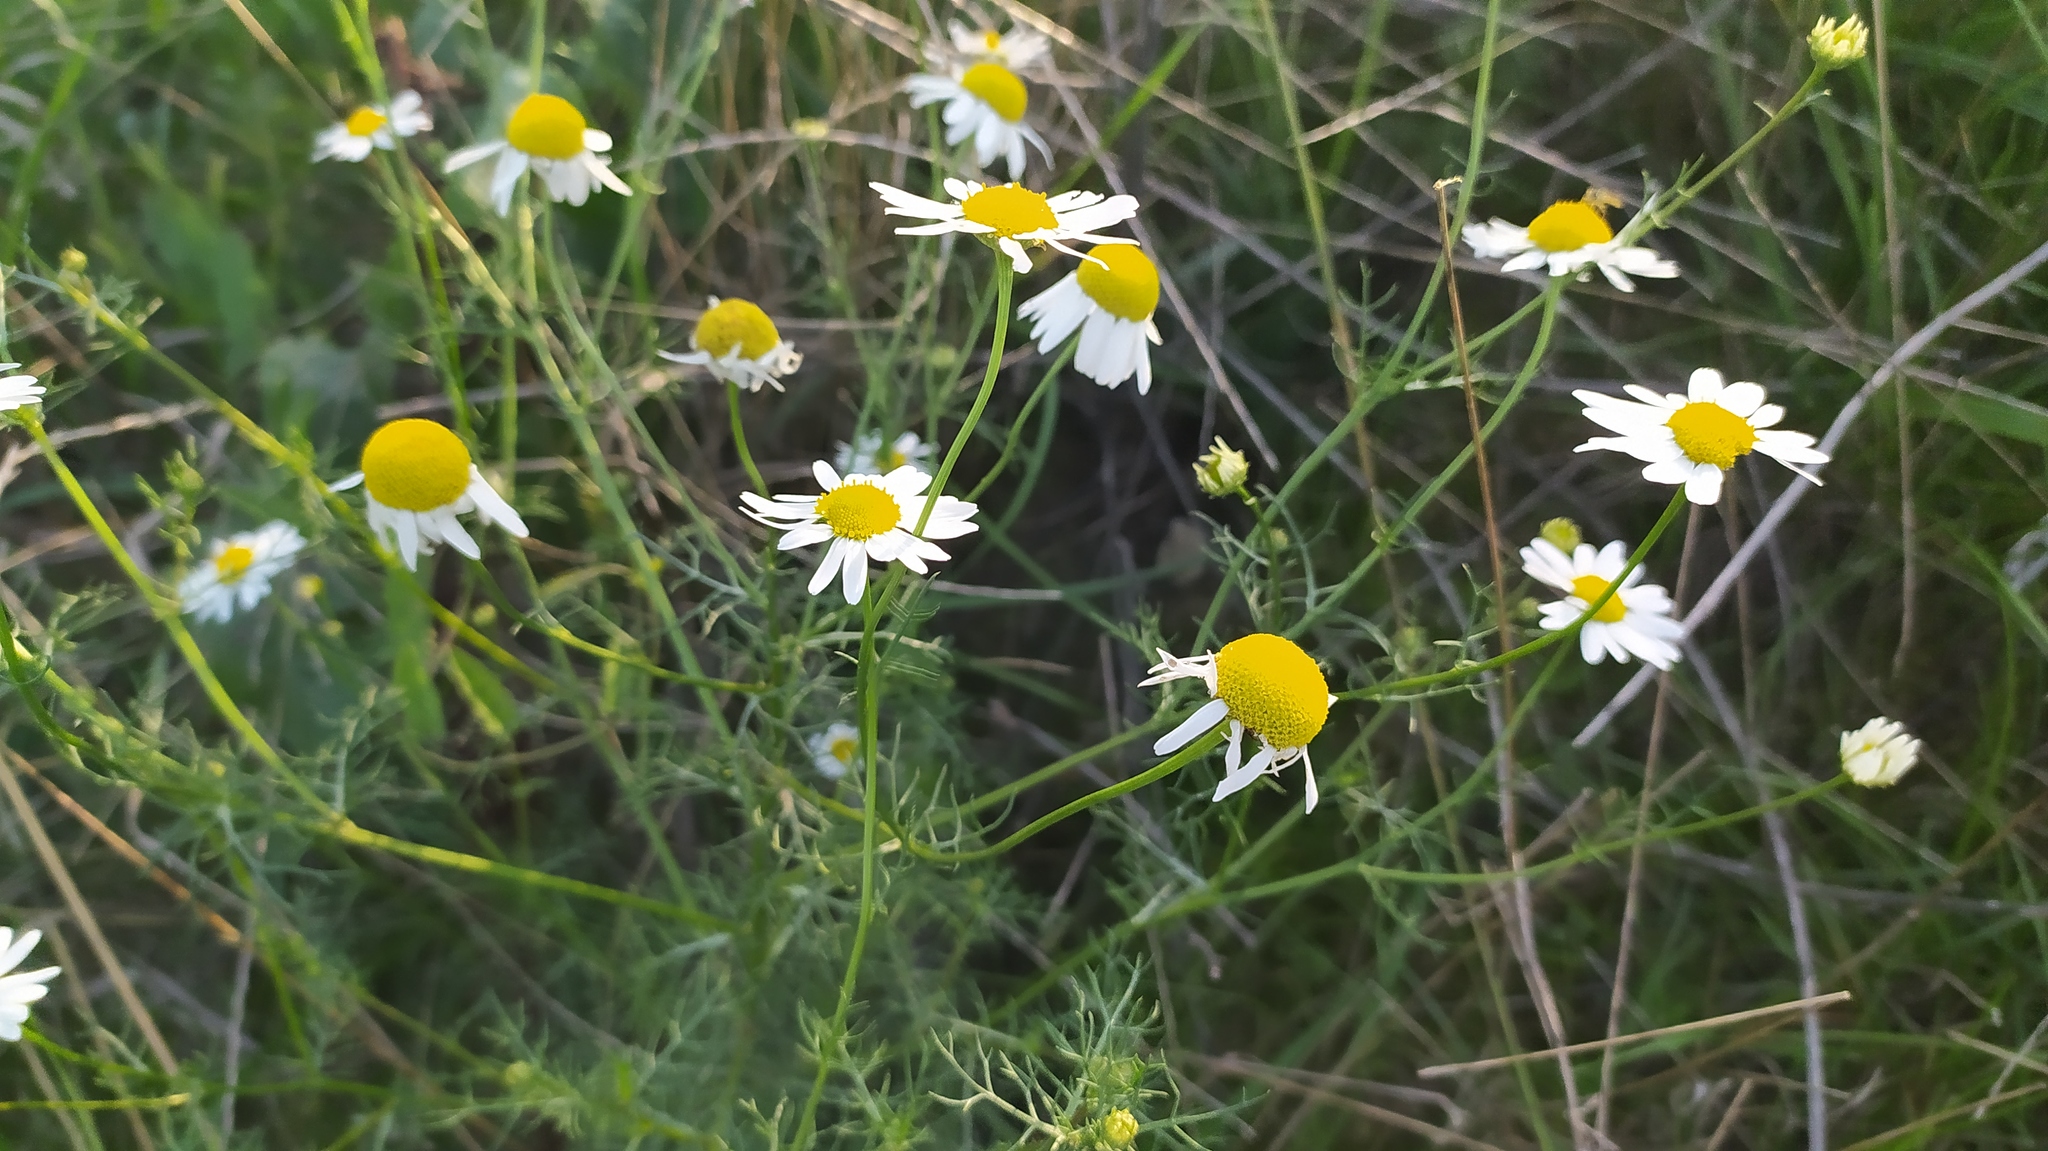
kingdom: Plantae
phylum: Tracheophyta
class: Magnoliopsida
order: Asterales
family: Asteraceae
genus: Tripleurospermum
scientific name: Tripleurospermum inodorum
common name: Scentless mayweed
